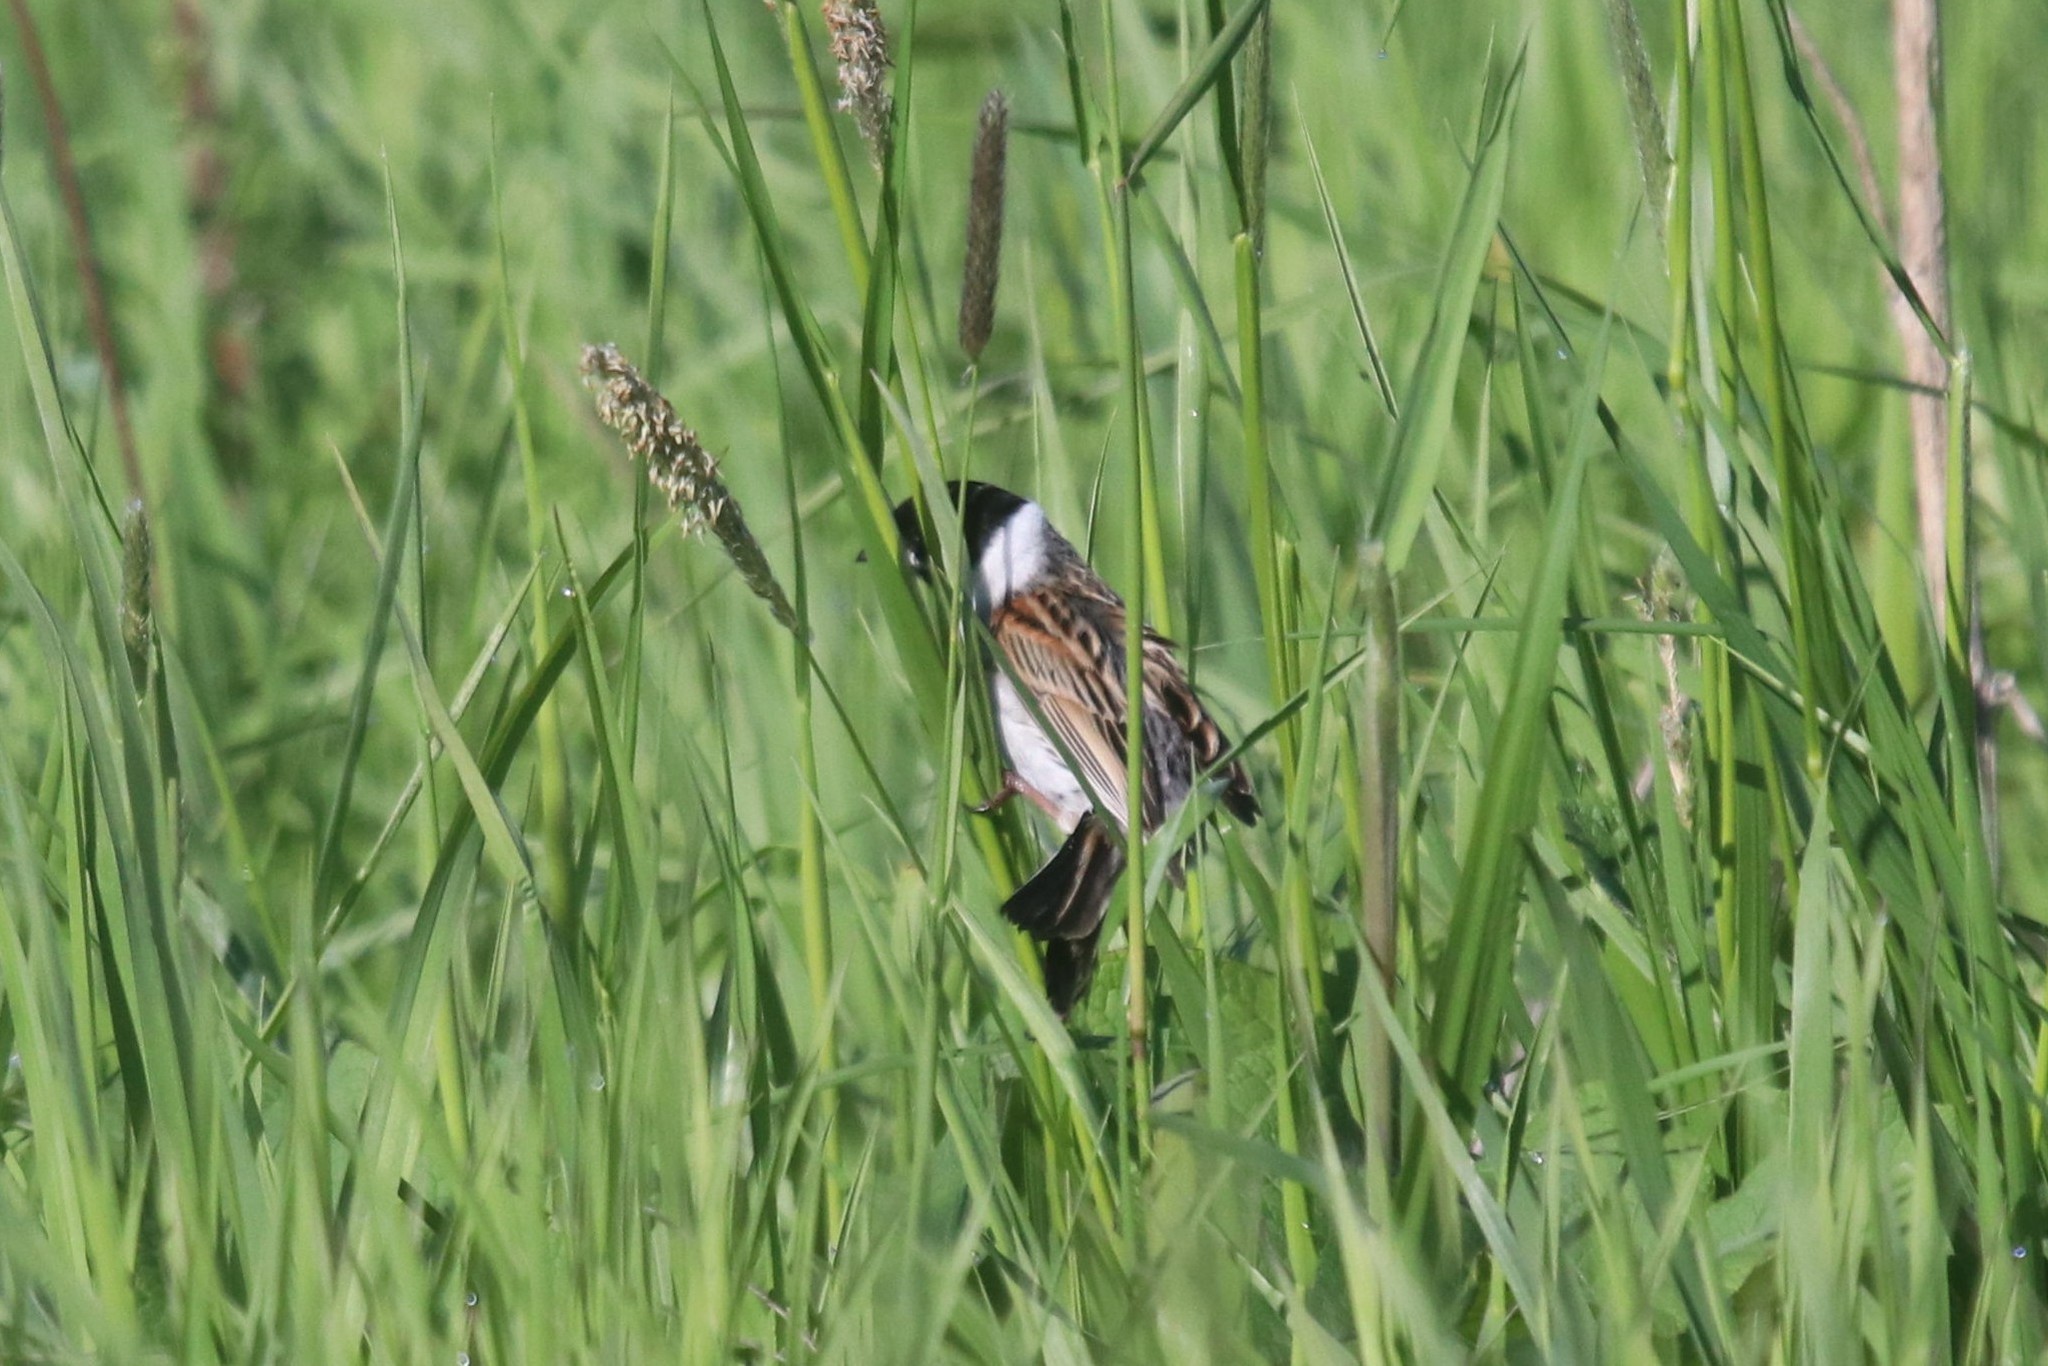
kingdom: Animalia
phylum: Chordata
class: Aves
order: Passeriformes
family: Emberizidae
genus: Emberiza
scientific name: Emberiza schoeniclus
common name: Reed bunting
